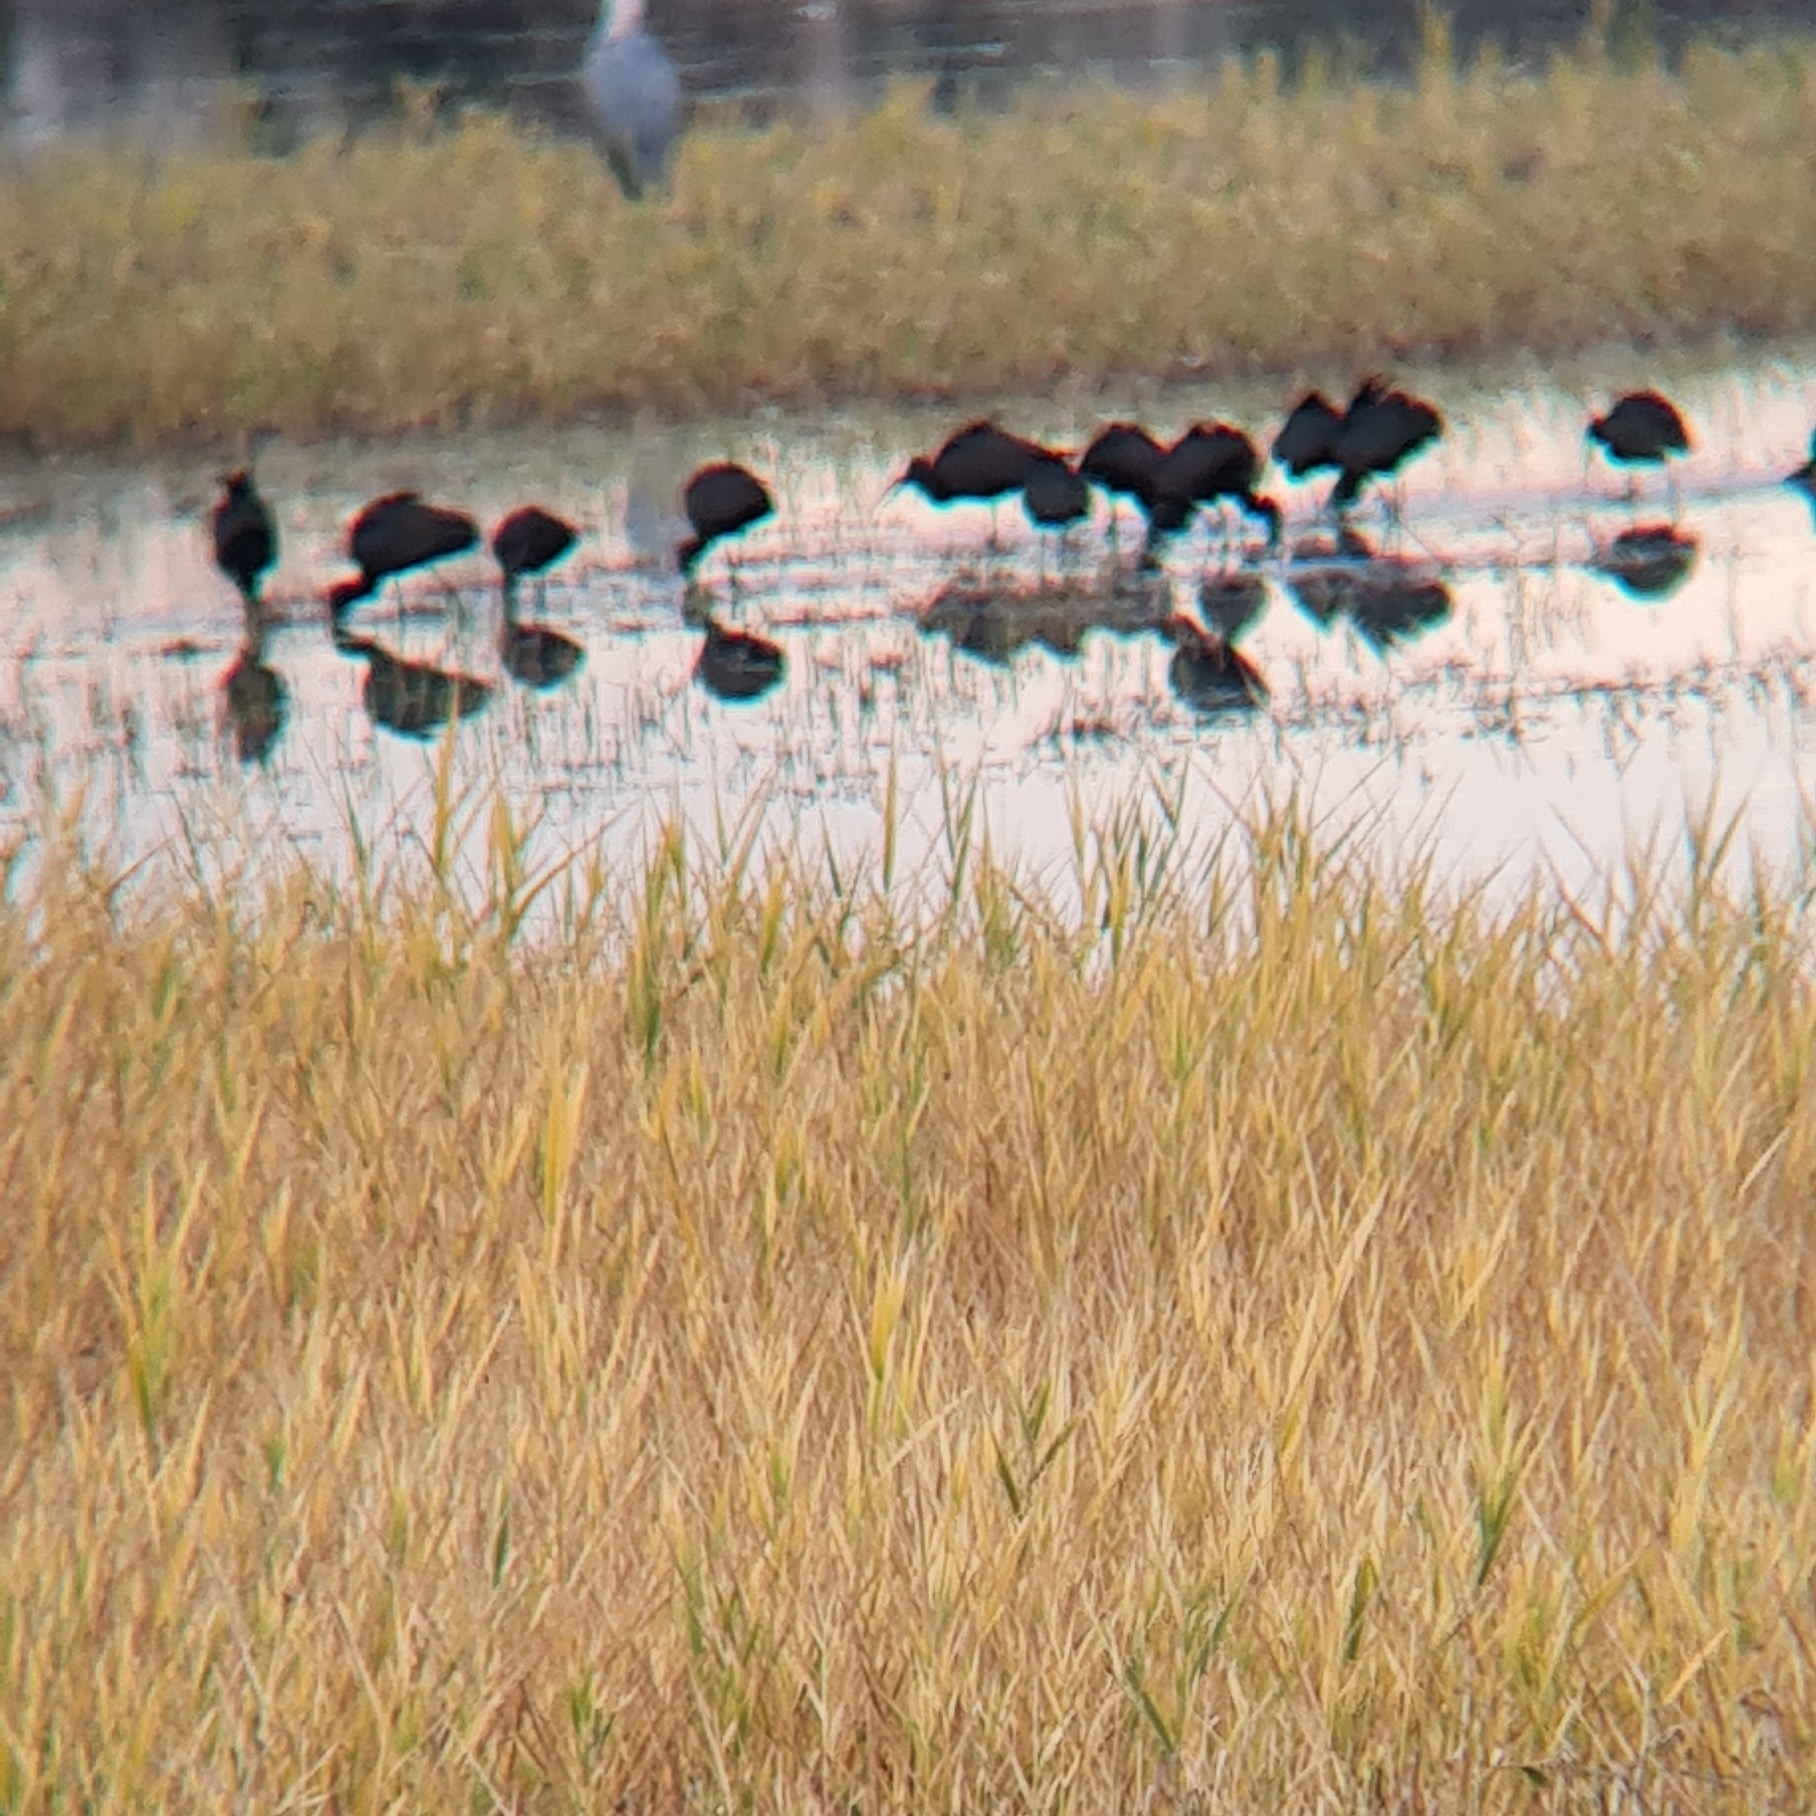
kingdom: Animalia
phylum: Chordata
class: Aves
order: Pelecaniformes
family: Threskiornithidae
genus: Plegadis
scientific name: Plegadis falcinellus
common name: Glossy ibis
